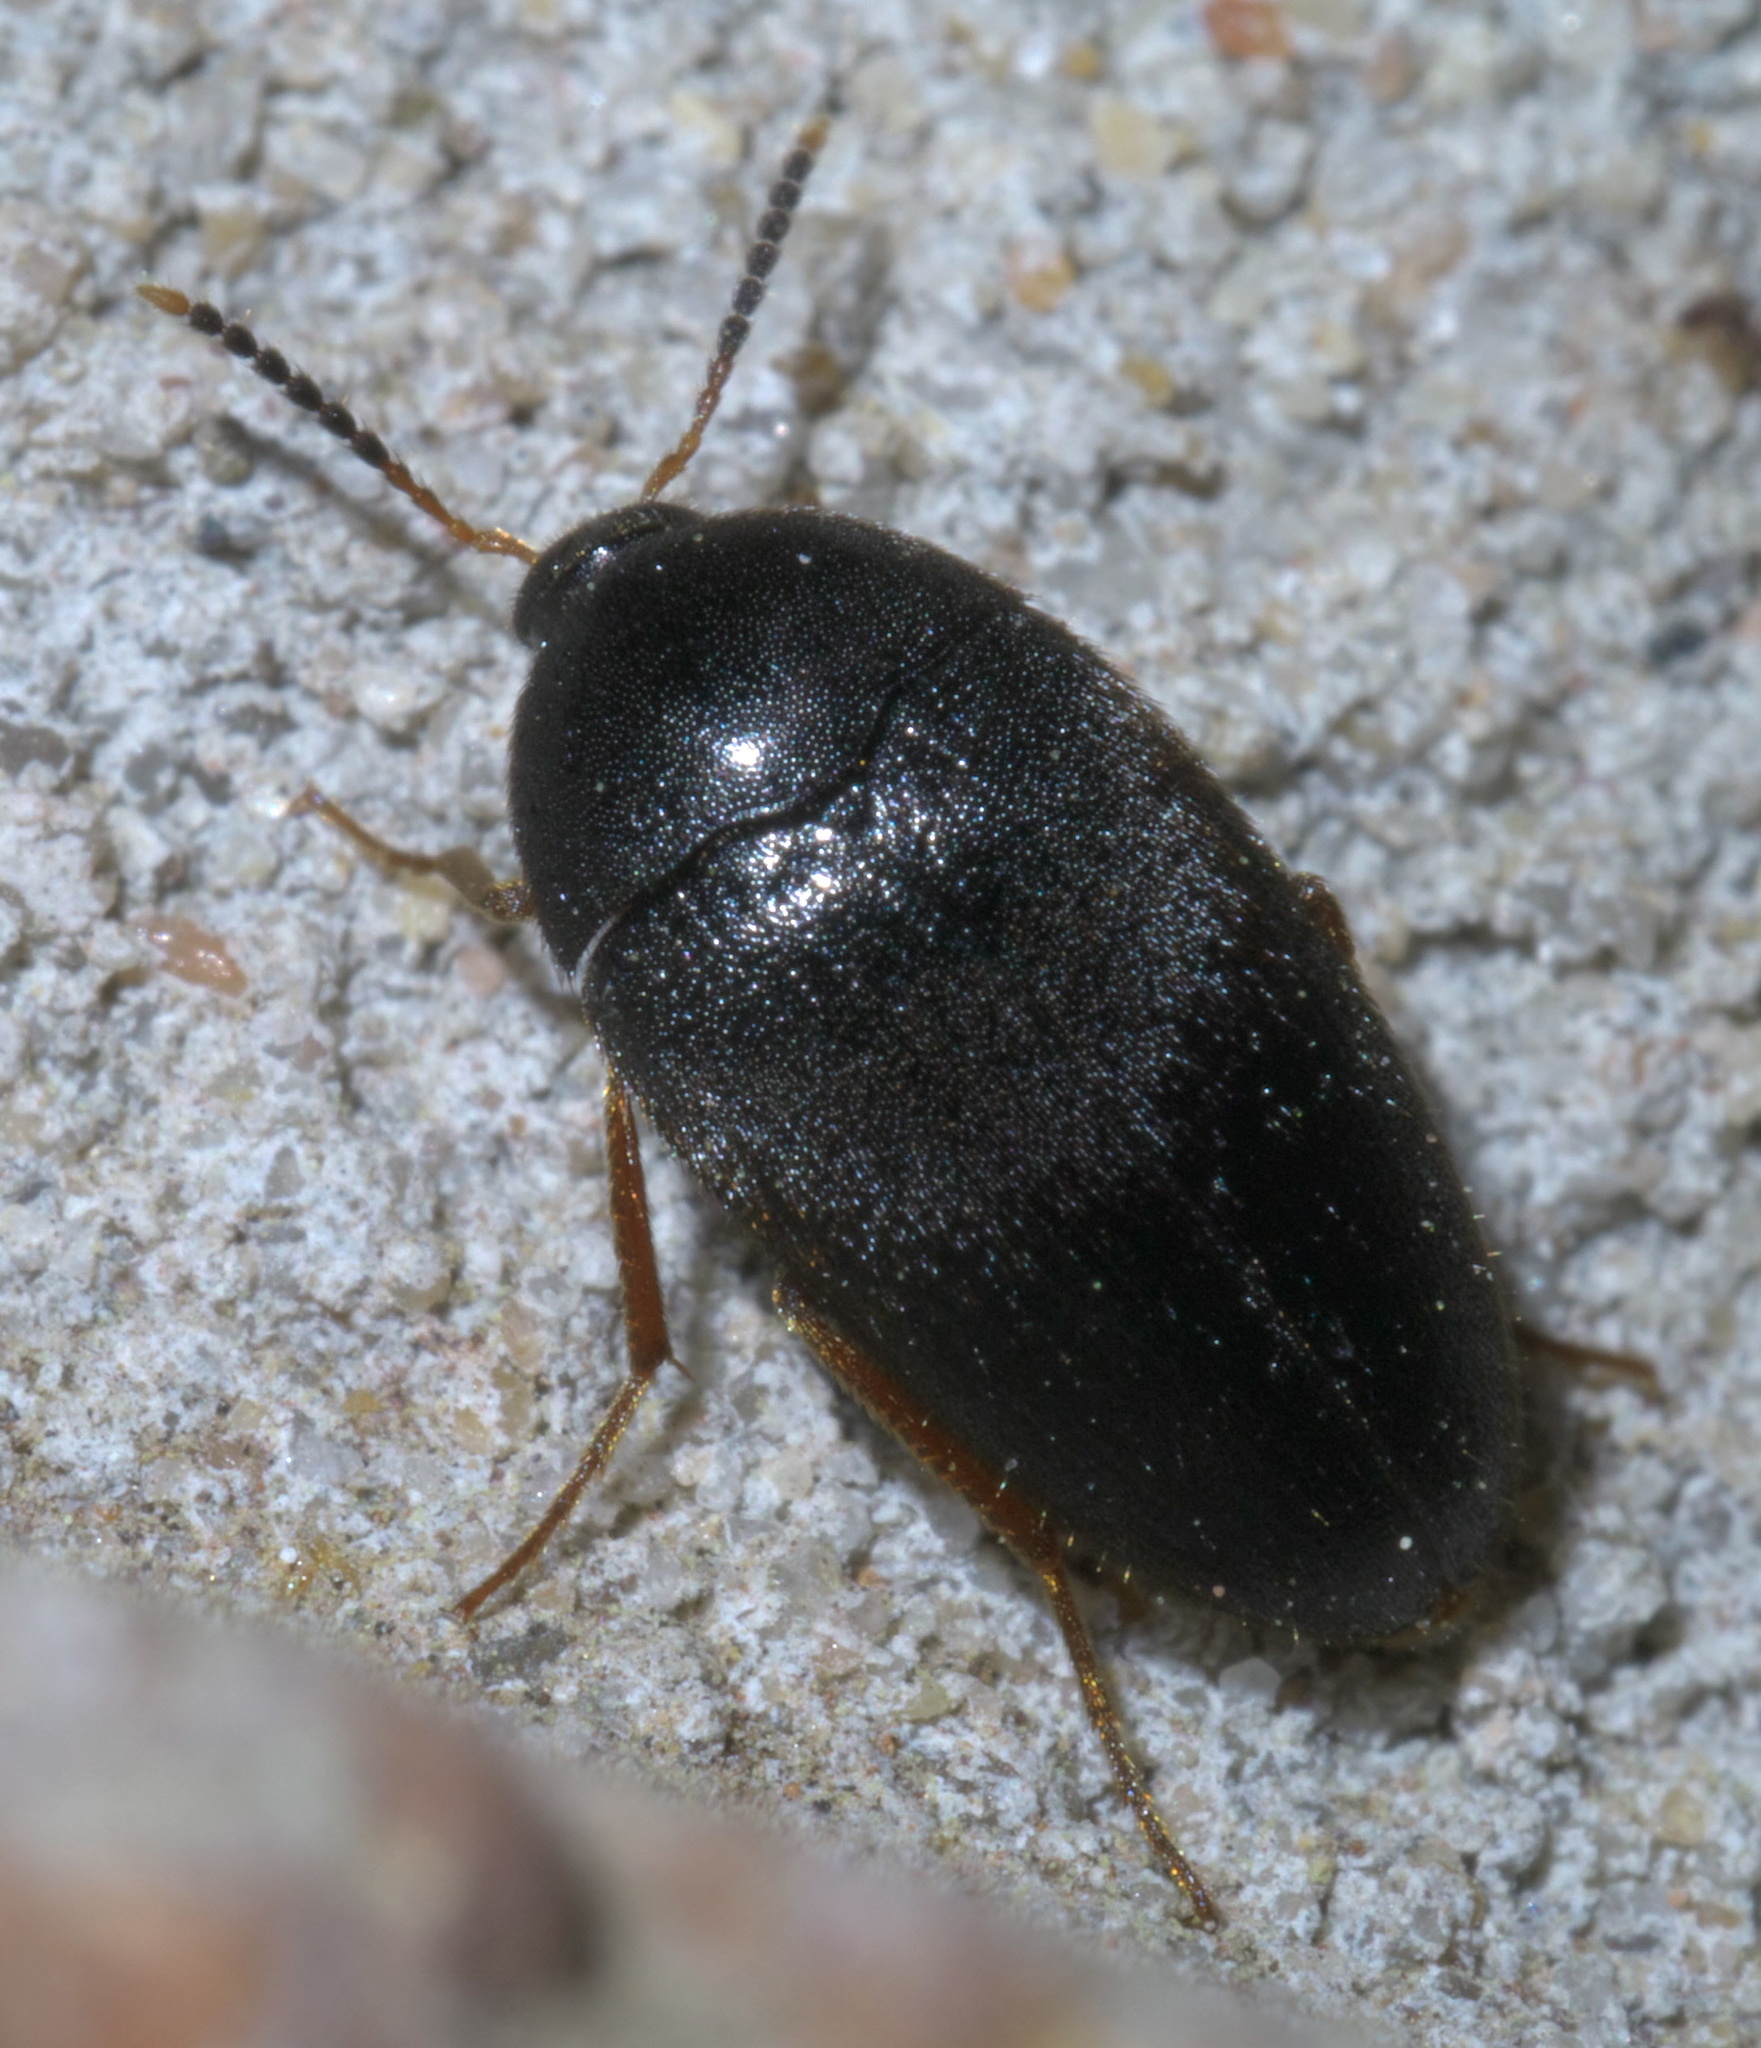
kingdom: Animalia
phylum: Arthropoda
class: Insecta
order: Coleoptera
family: Tetratomidae
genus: Eustrophopsis
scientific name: Eustrophopsis bicolor
